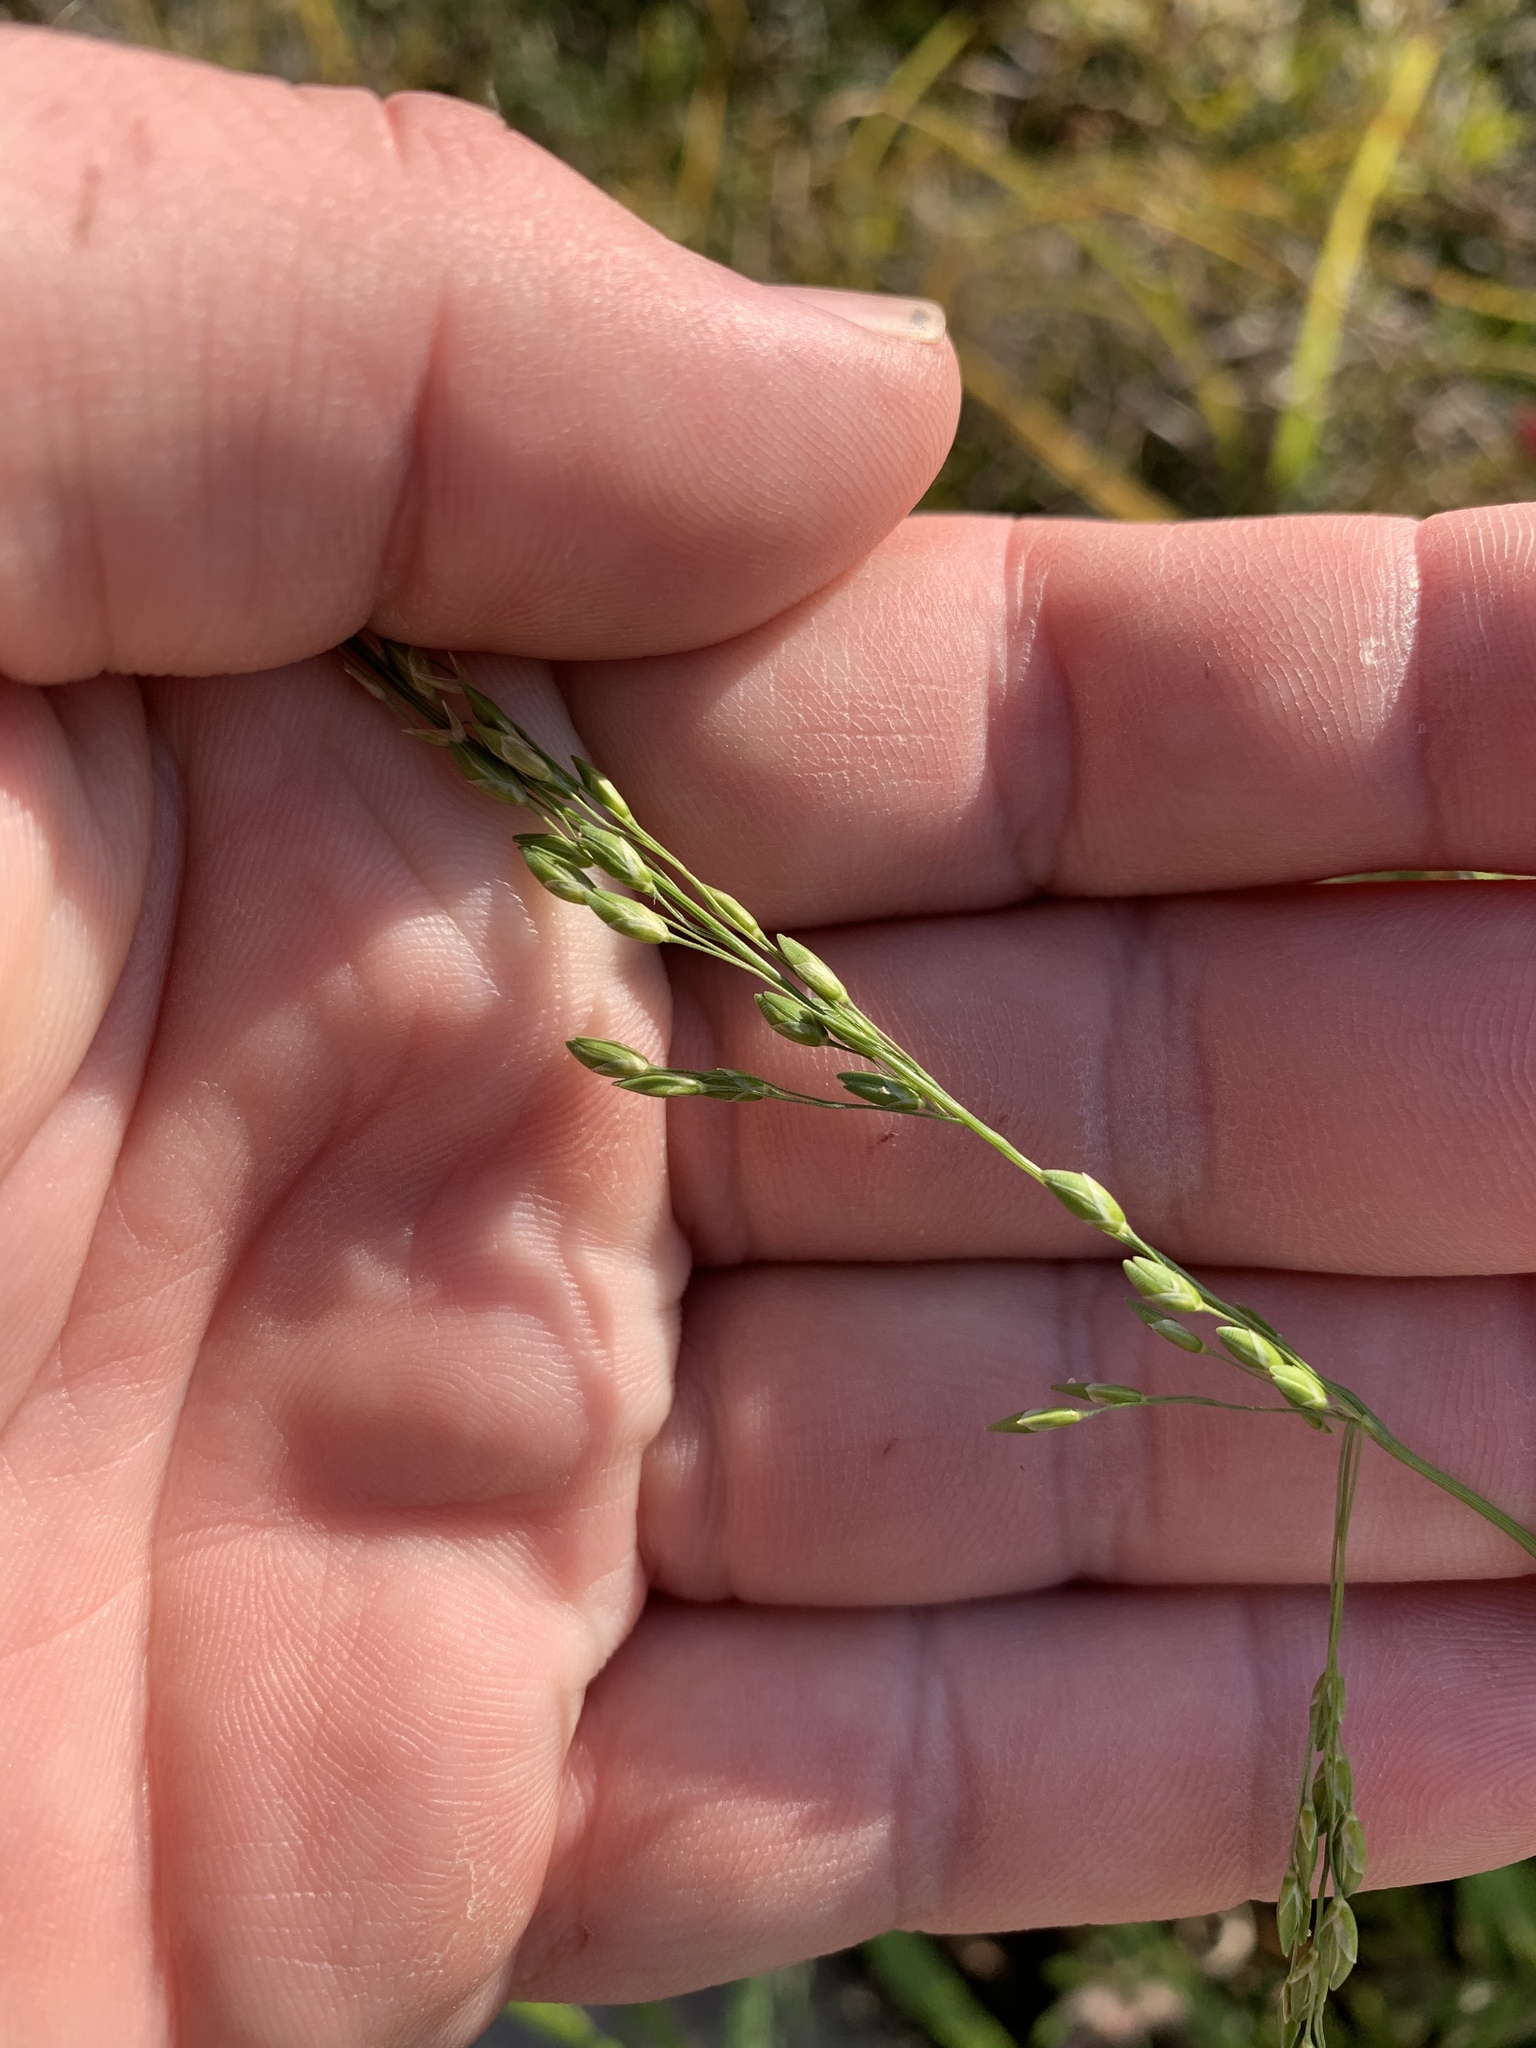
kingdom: Plantae
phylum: Tracheophyta
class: Liliopsida
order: Poales
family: Poaceae
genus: Ehrharta
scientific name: Ehrharta erecta
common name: Panic veldtgrass
